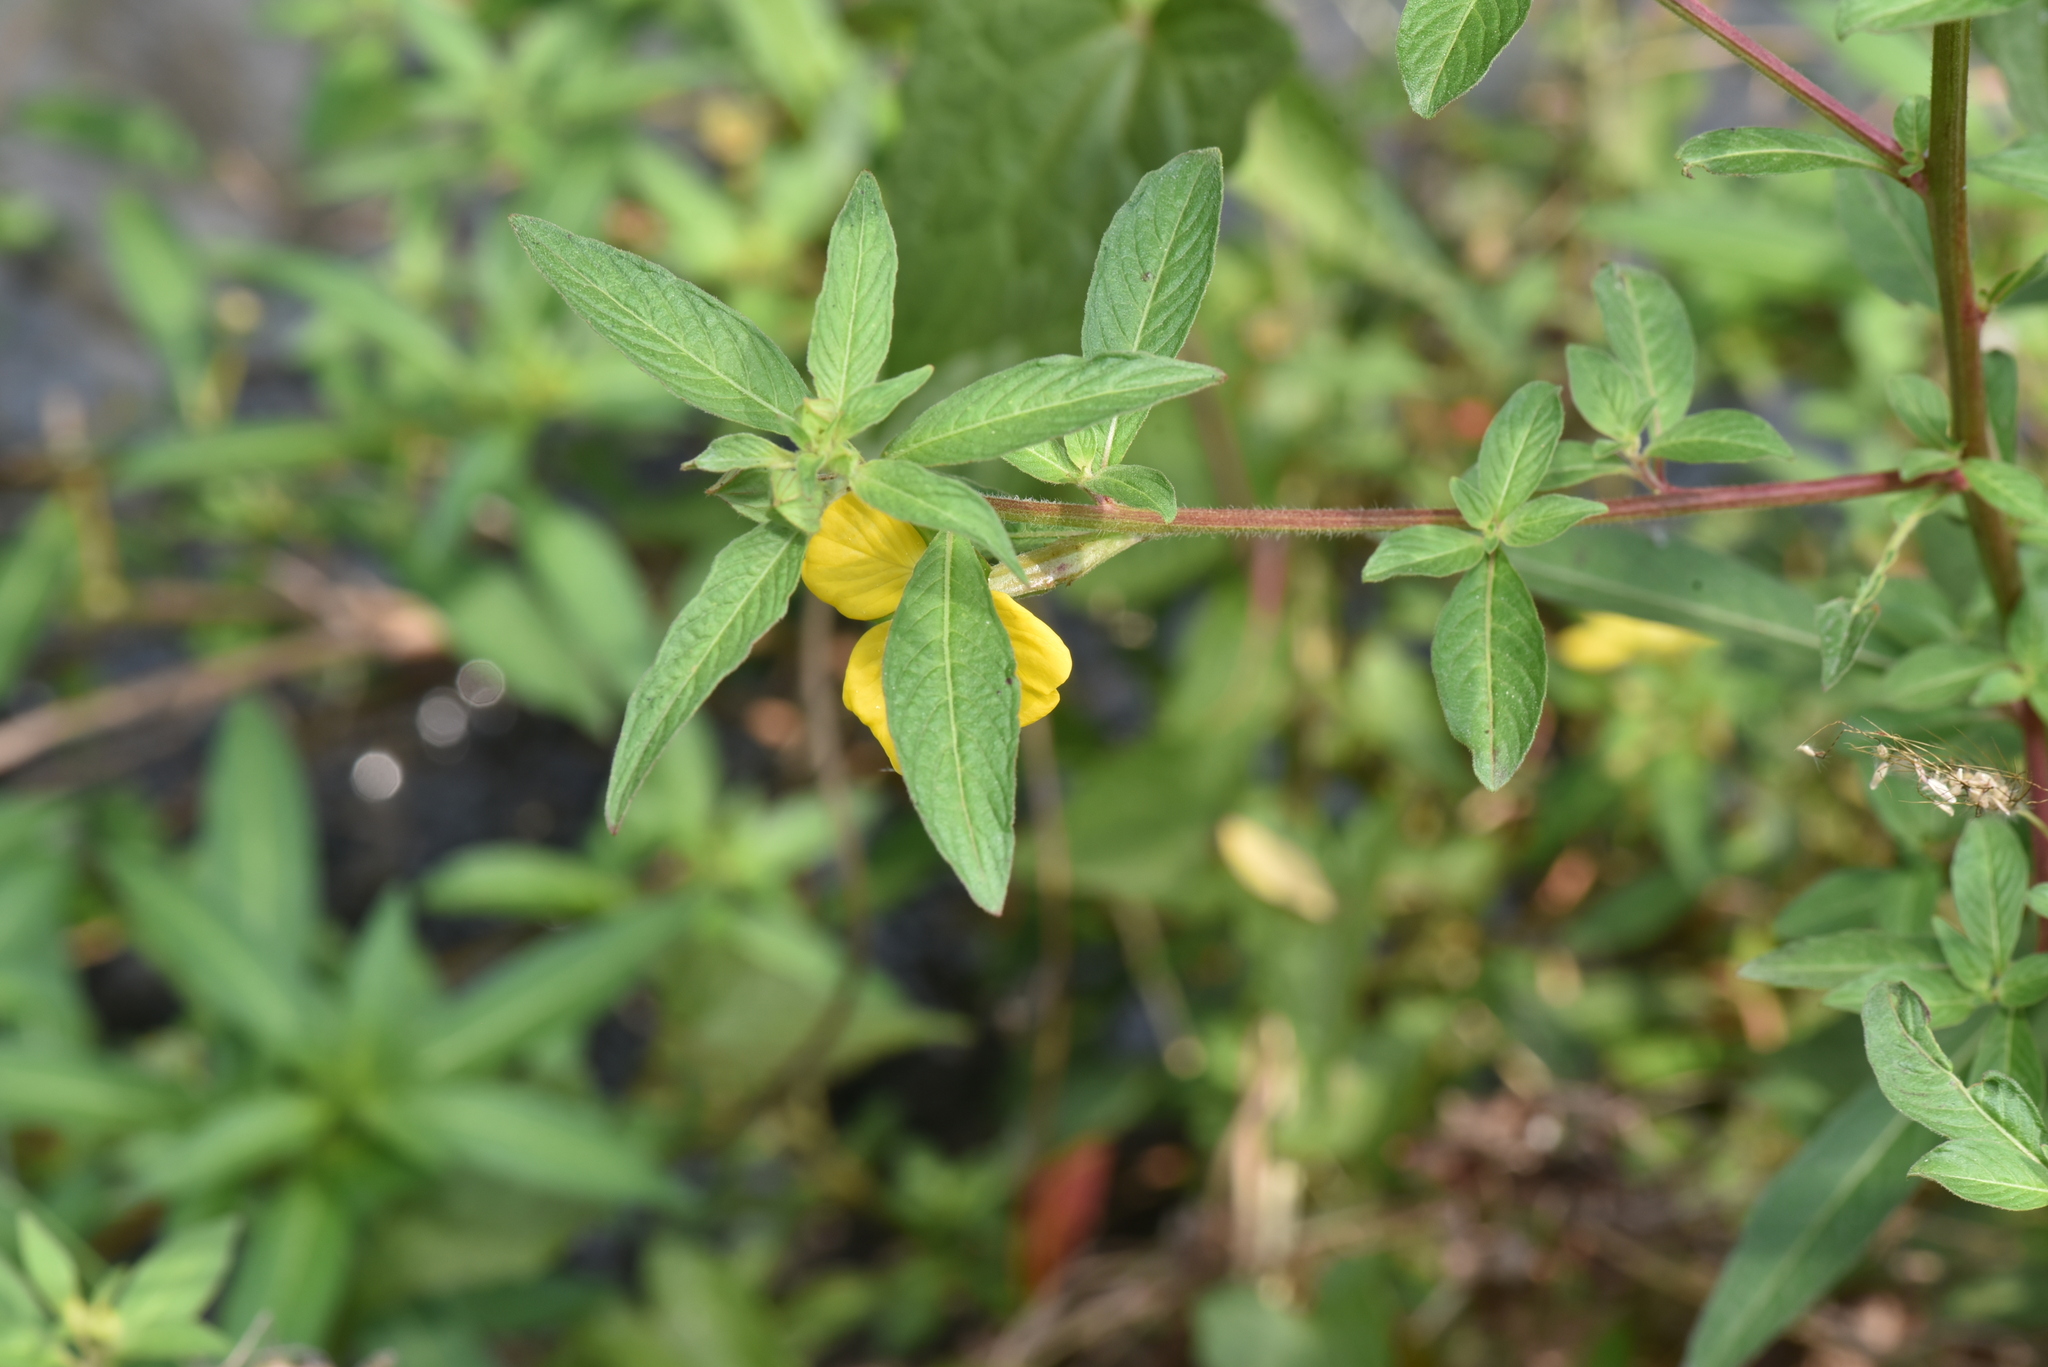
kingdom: Plantae
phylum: Tracheophyta
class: Magnoliopsida
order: Myrtales
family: Onagraceae
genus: Ludwigia
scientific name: Ludwigia octovalvis
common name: Water-primrose
